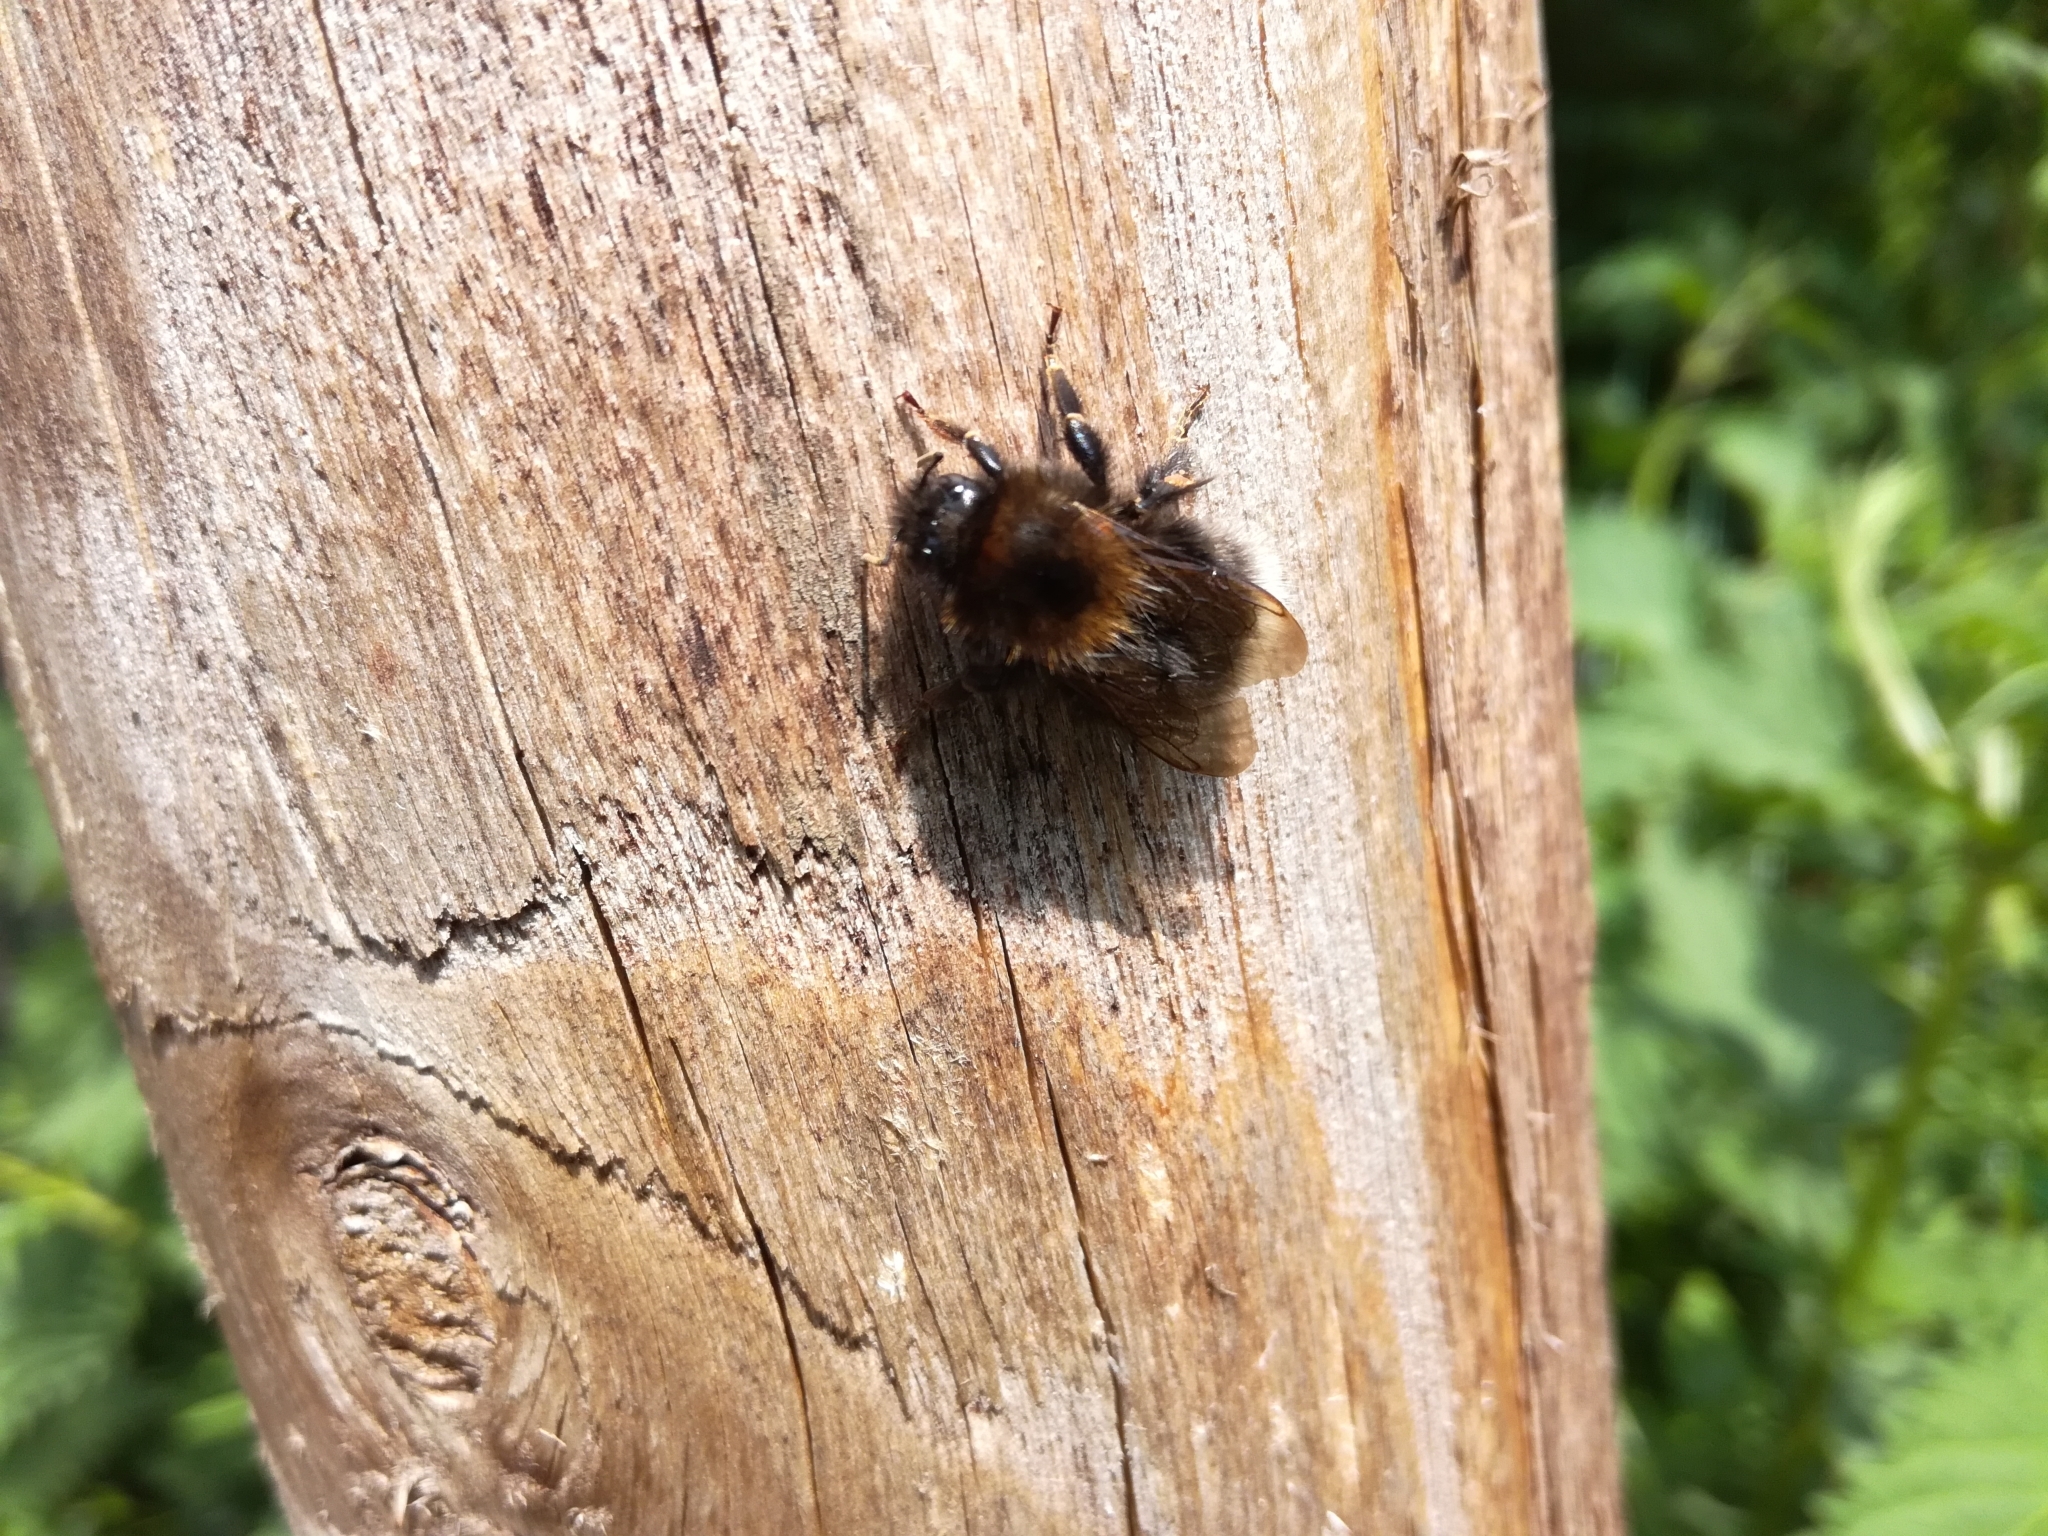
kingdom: Animalia
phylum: Arthropoda
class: Insecta
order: Hymenoptera
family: Apidae
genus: Bombus
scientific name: Bombus hypnorum
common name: New garden bumblebee
